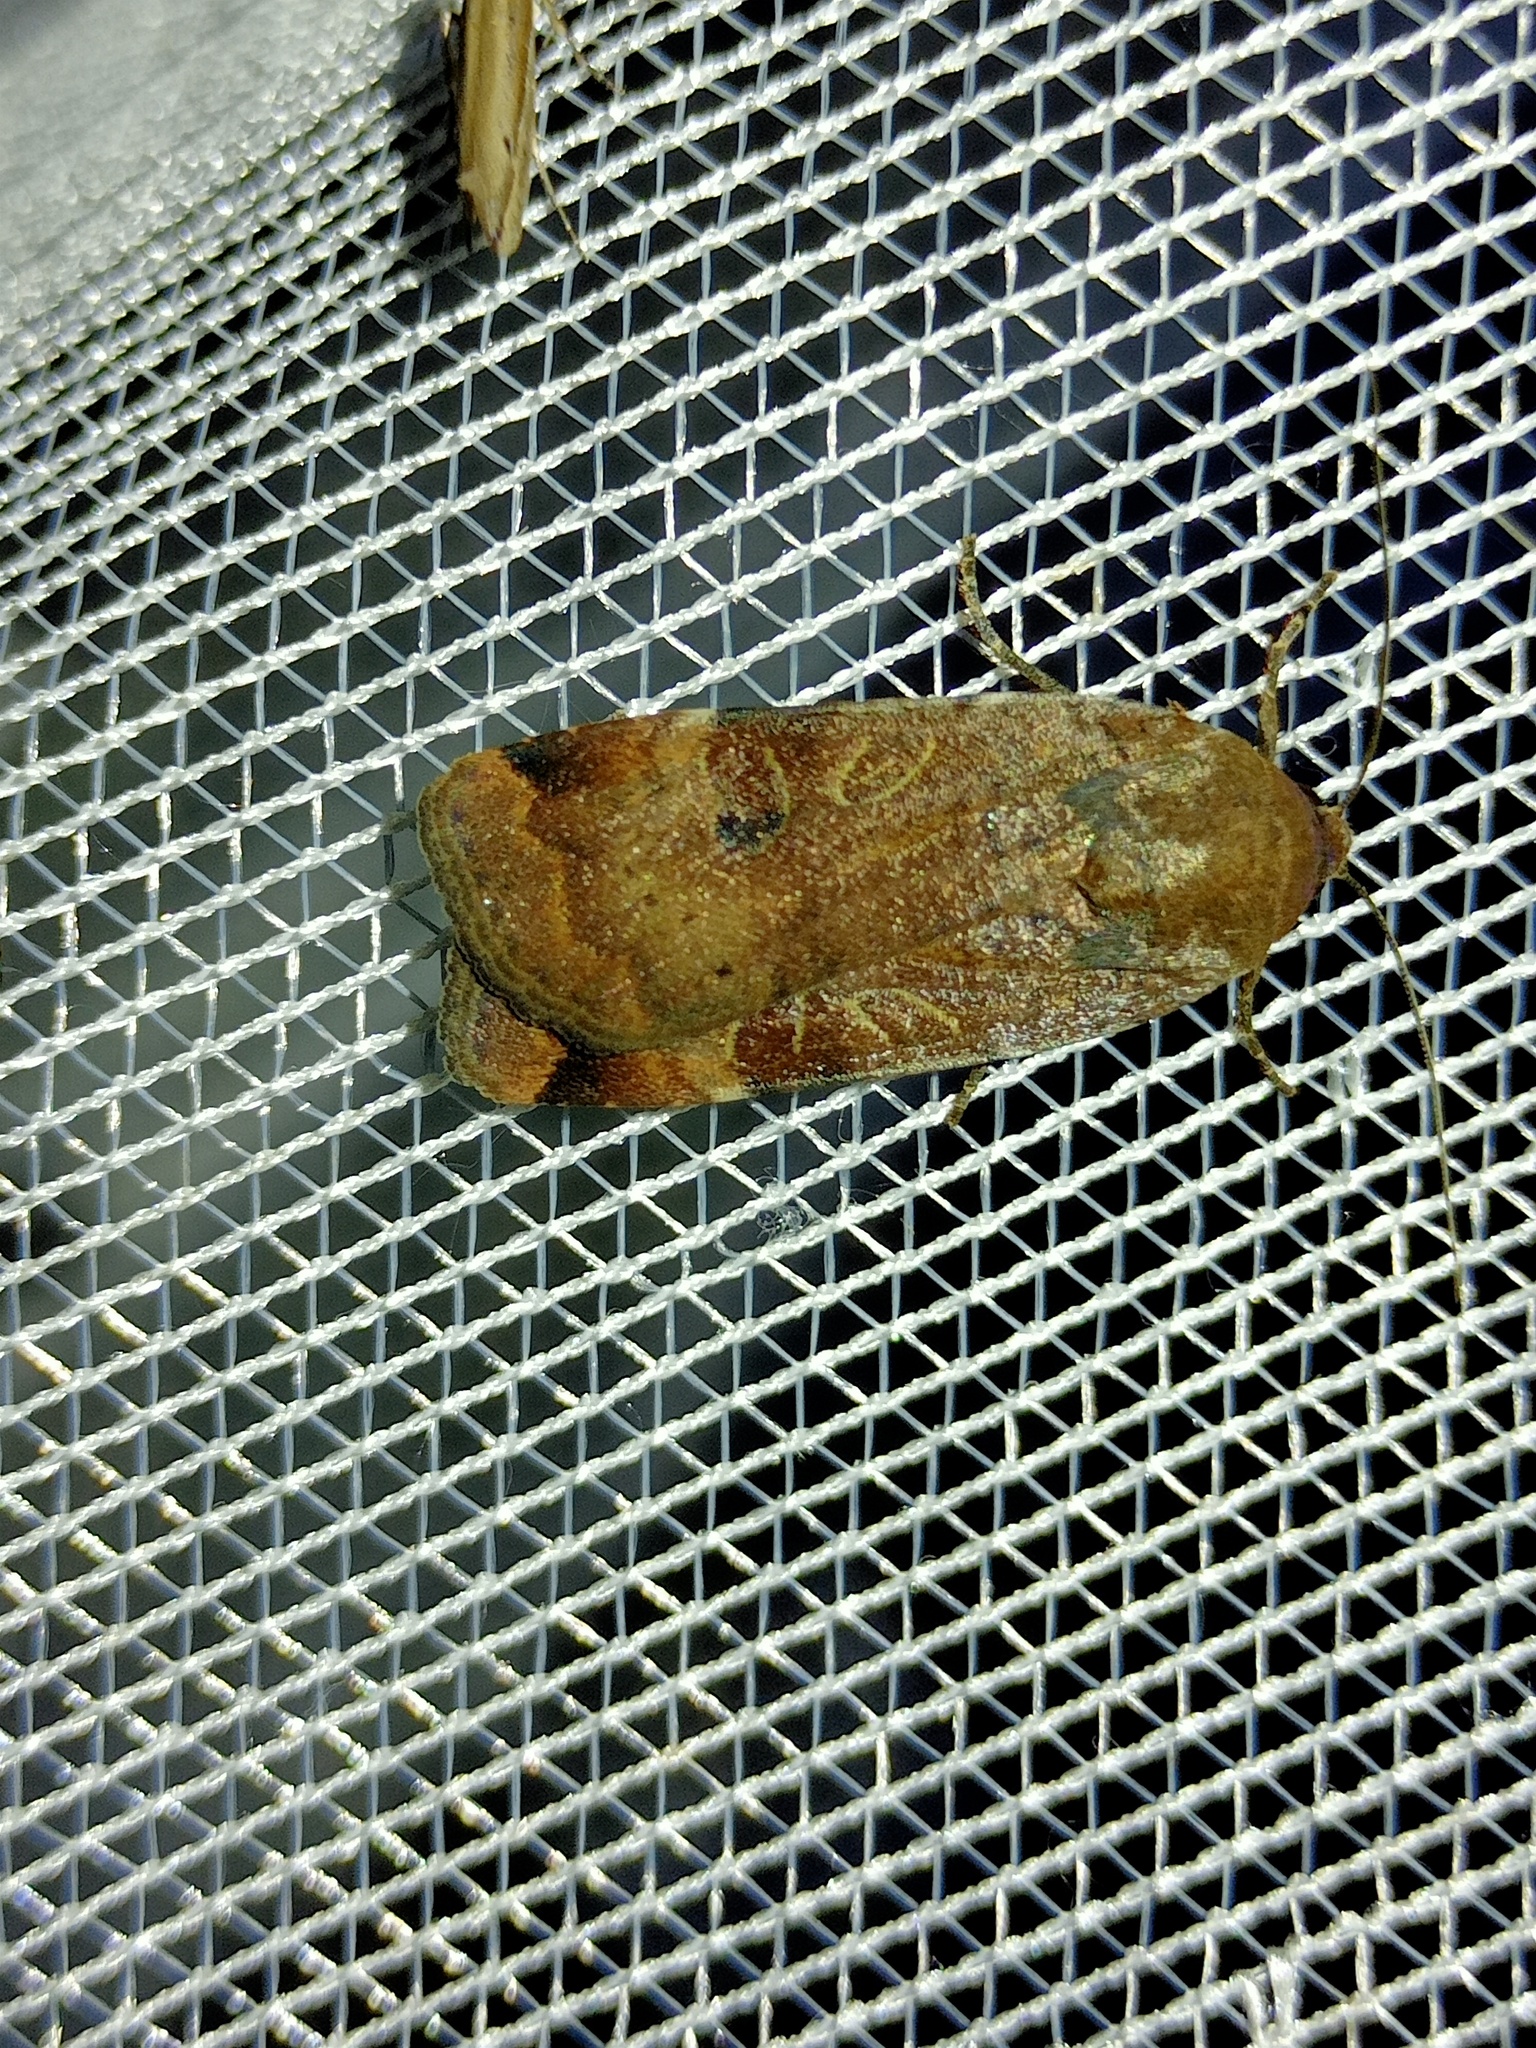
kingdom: Animalia
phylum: Arthropoda
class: Insecta
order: Lepidoptera
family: Noctuidae
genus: Noctua
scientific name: Noctua interposita
